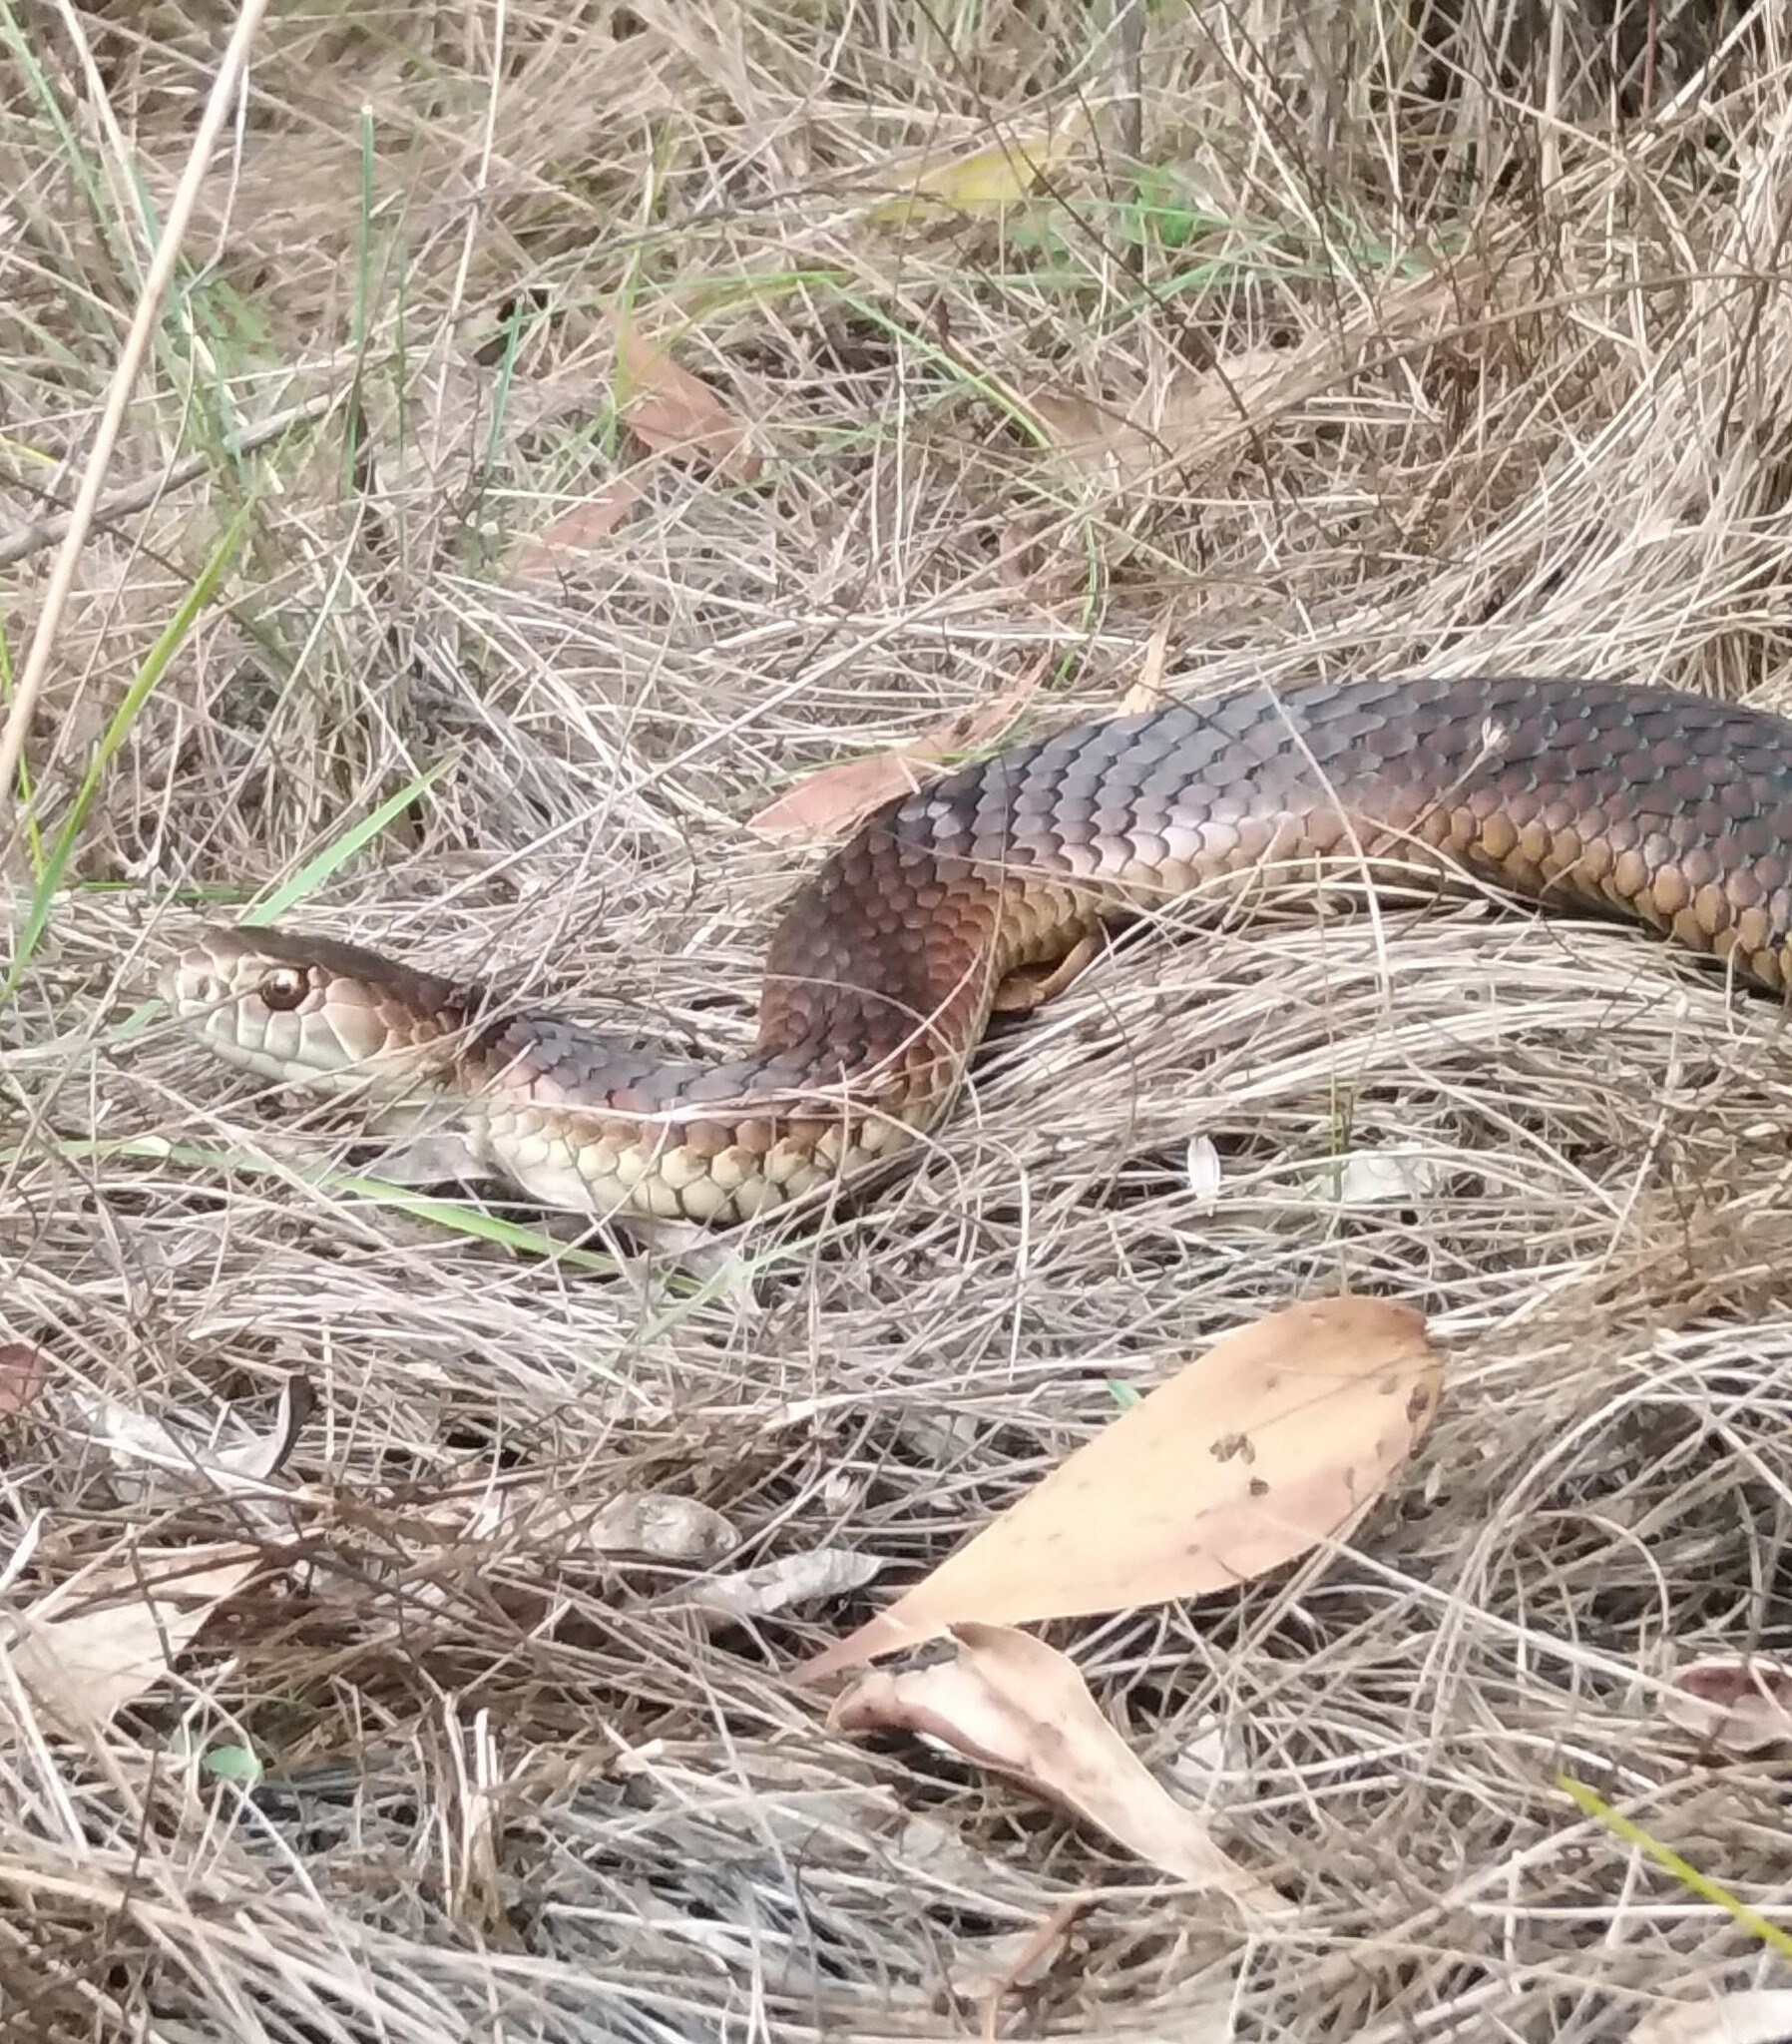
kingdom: Animalia
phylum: Chordata
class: Squamata
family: Elapidae
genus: Austrelaps
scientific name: Austrelaps superbus
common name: Copperhead snake
